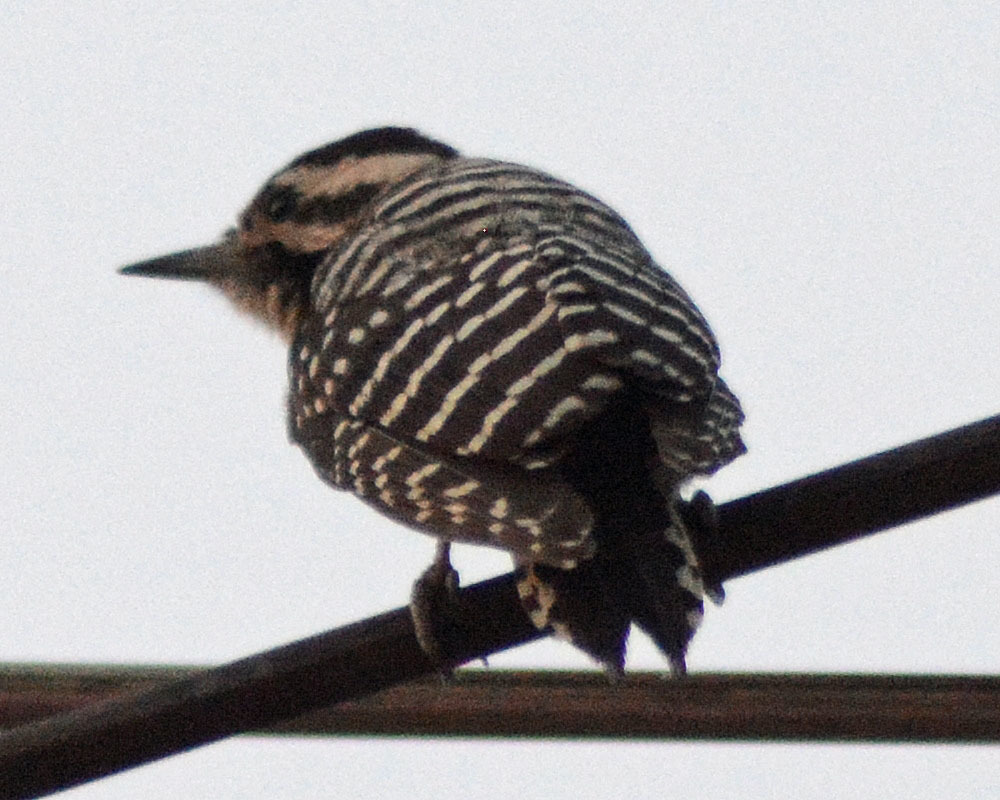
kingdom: Animalia
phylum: Chordata
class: Aves
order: Piciformes
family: Picidae
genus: Dryobates
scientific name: Dryobates scalaris
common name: Ladder-backed woodpecker
